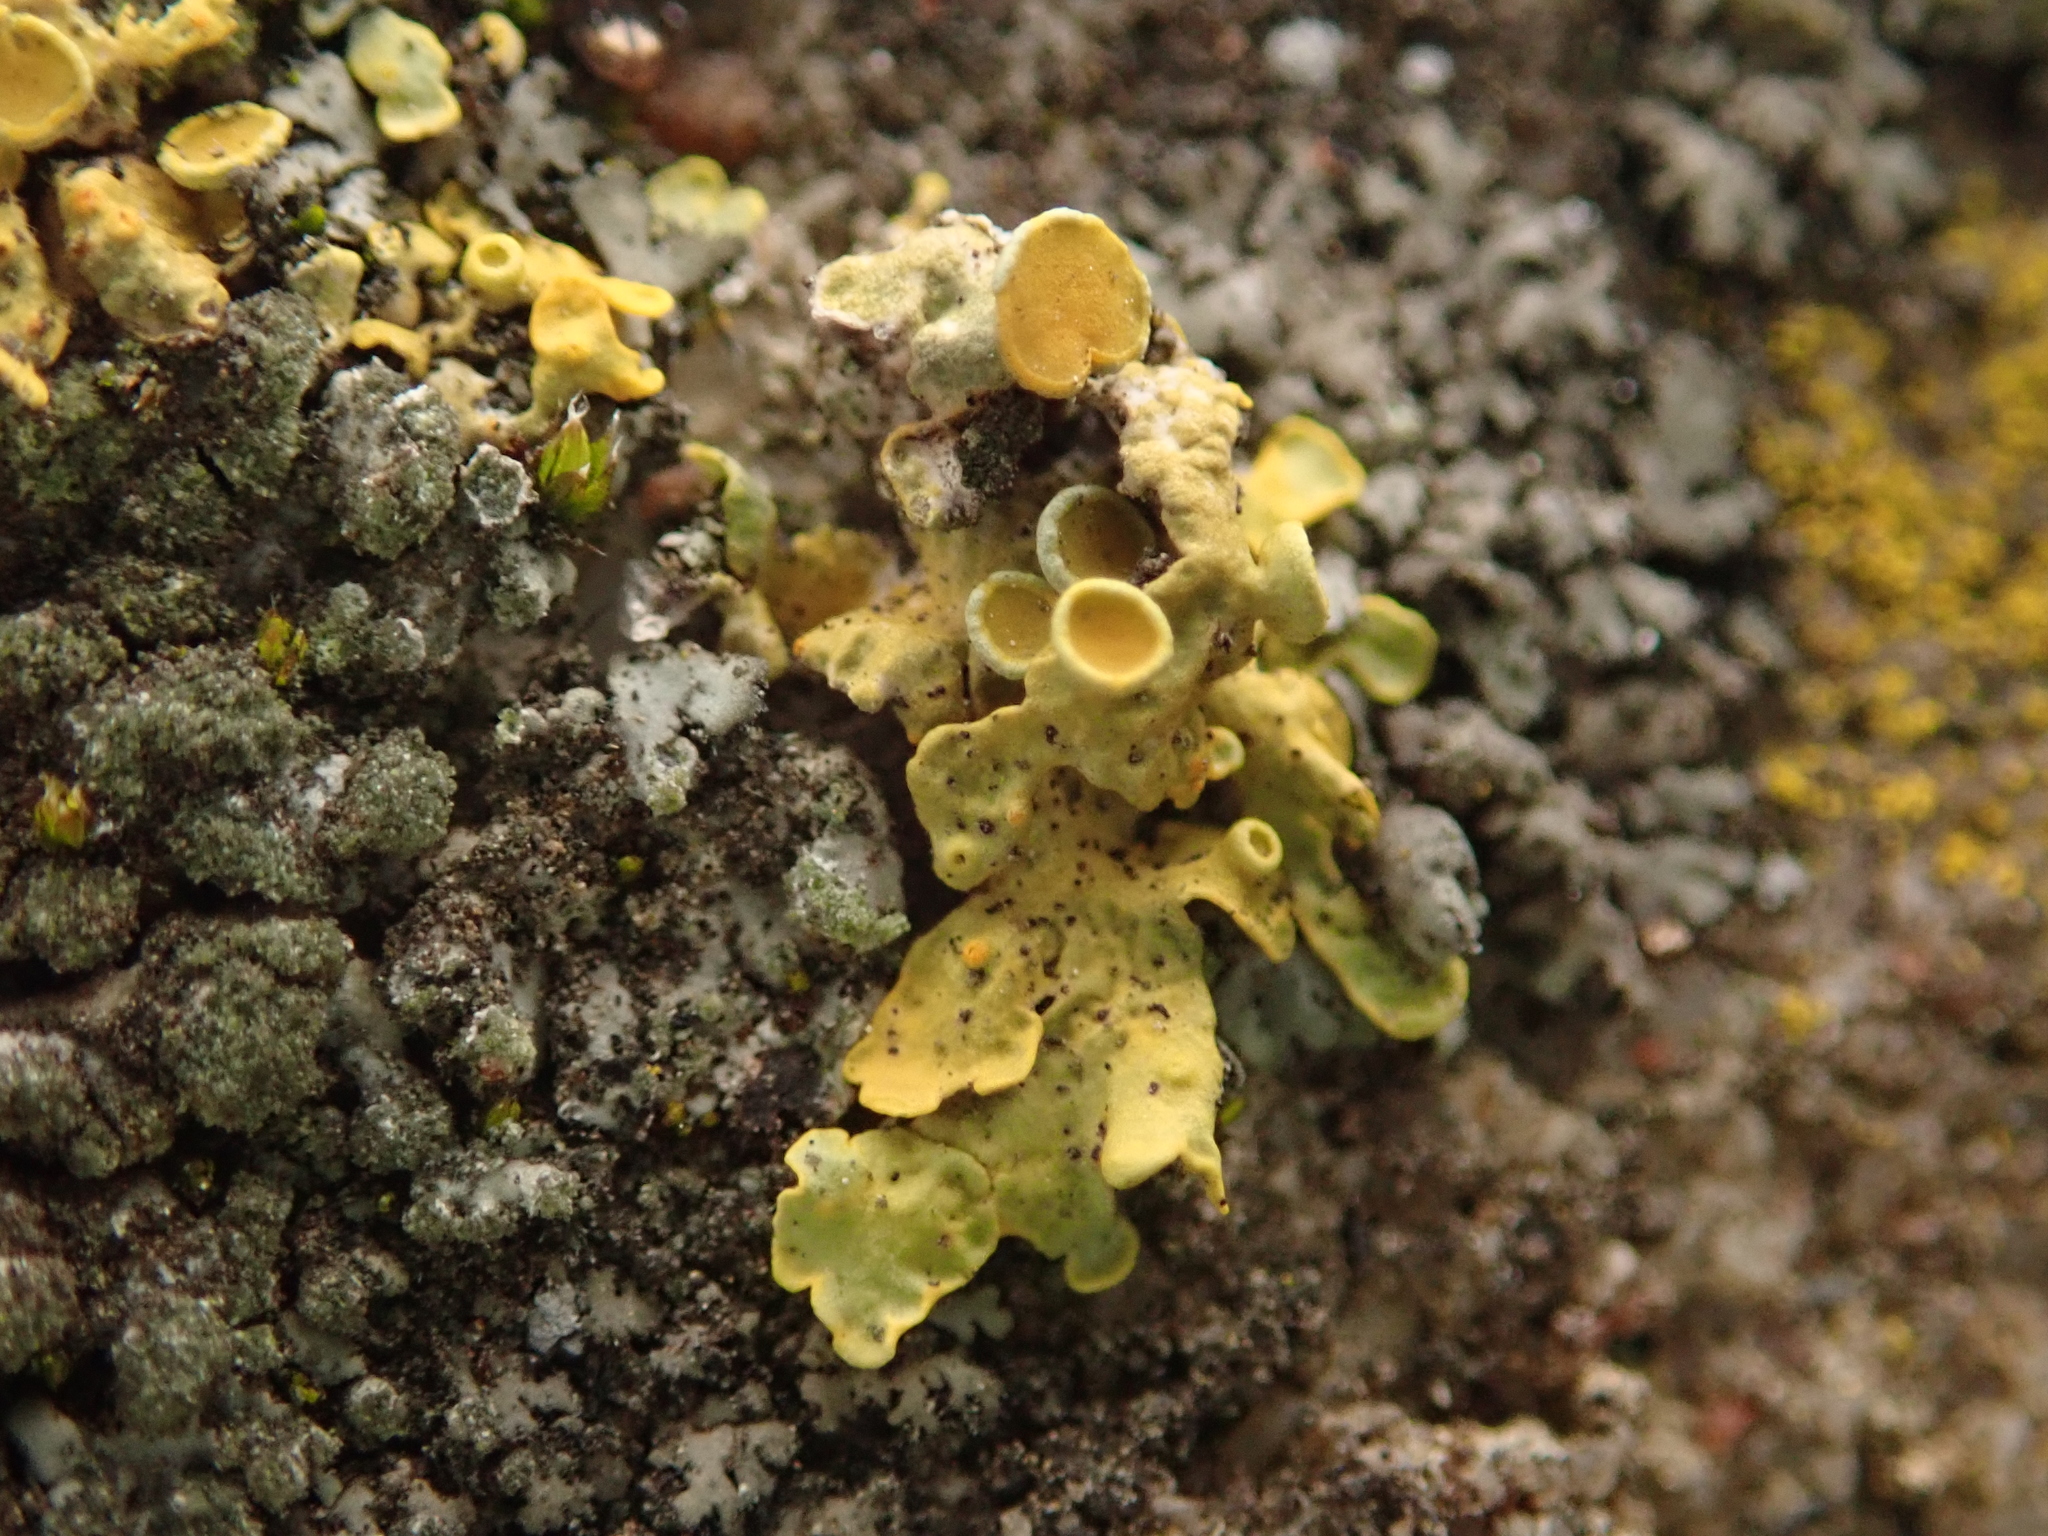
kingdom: Fungi
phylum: Ascomycota
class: Lecanoromycetes
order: Teloschistales
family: Teloschistaceae
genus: Xanthoria
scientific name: Xanthoria parietina
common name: Common orange lichen
